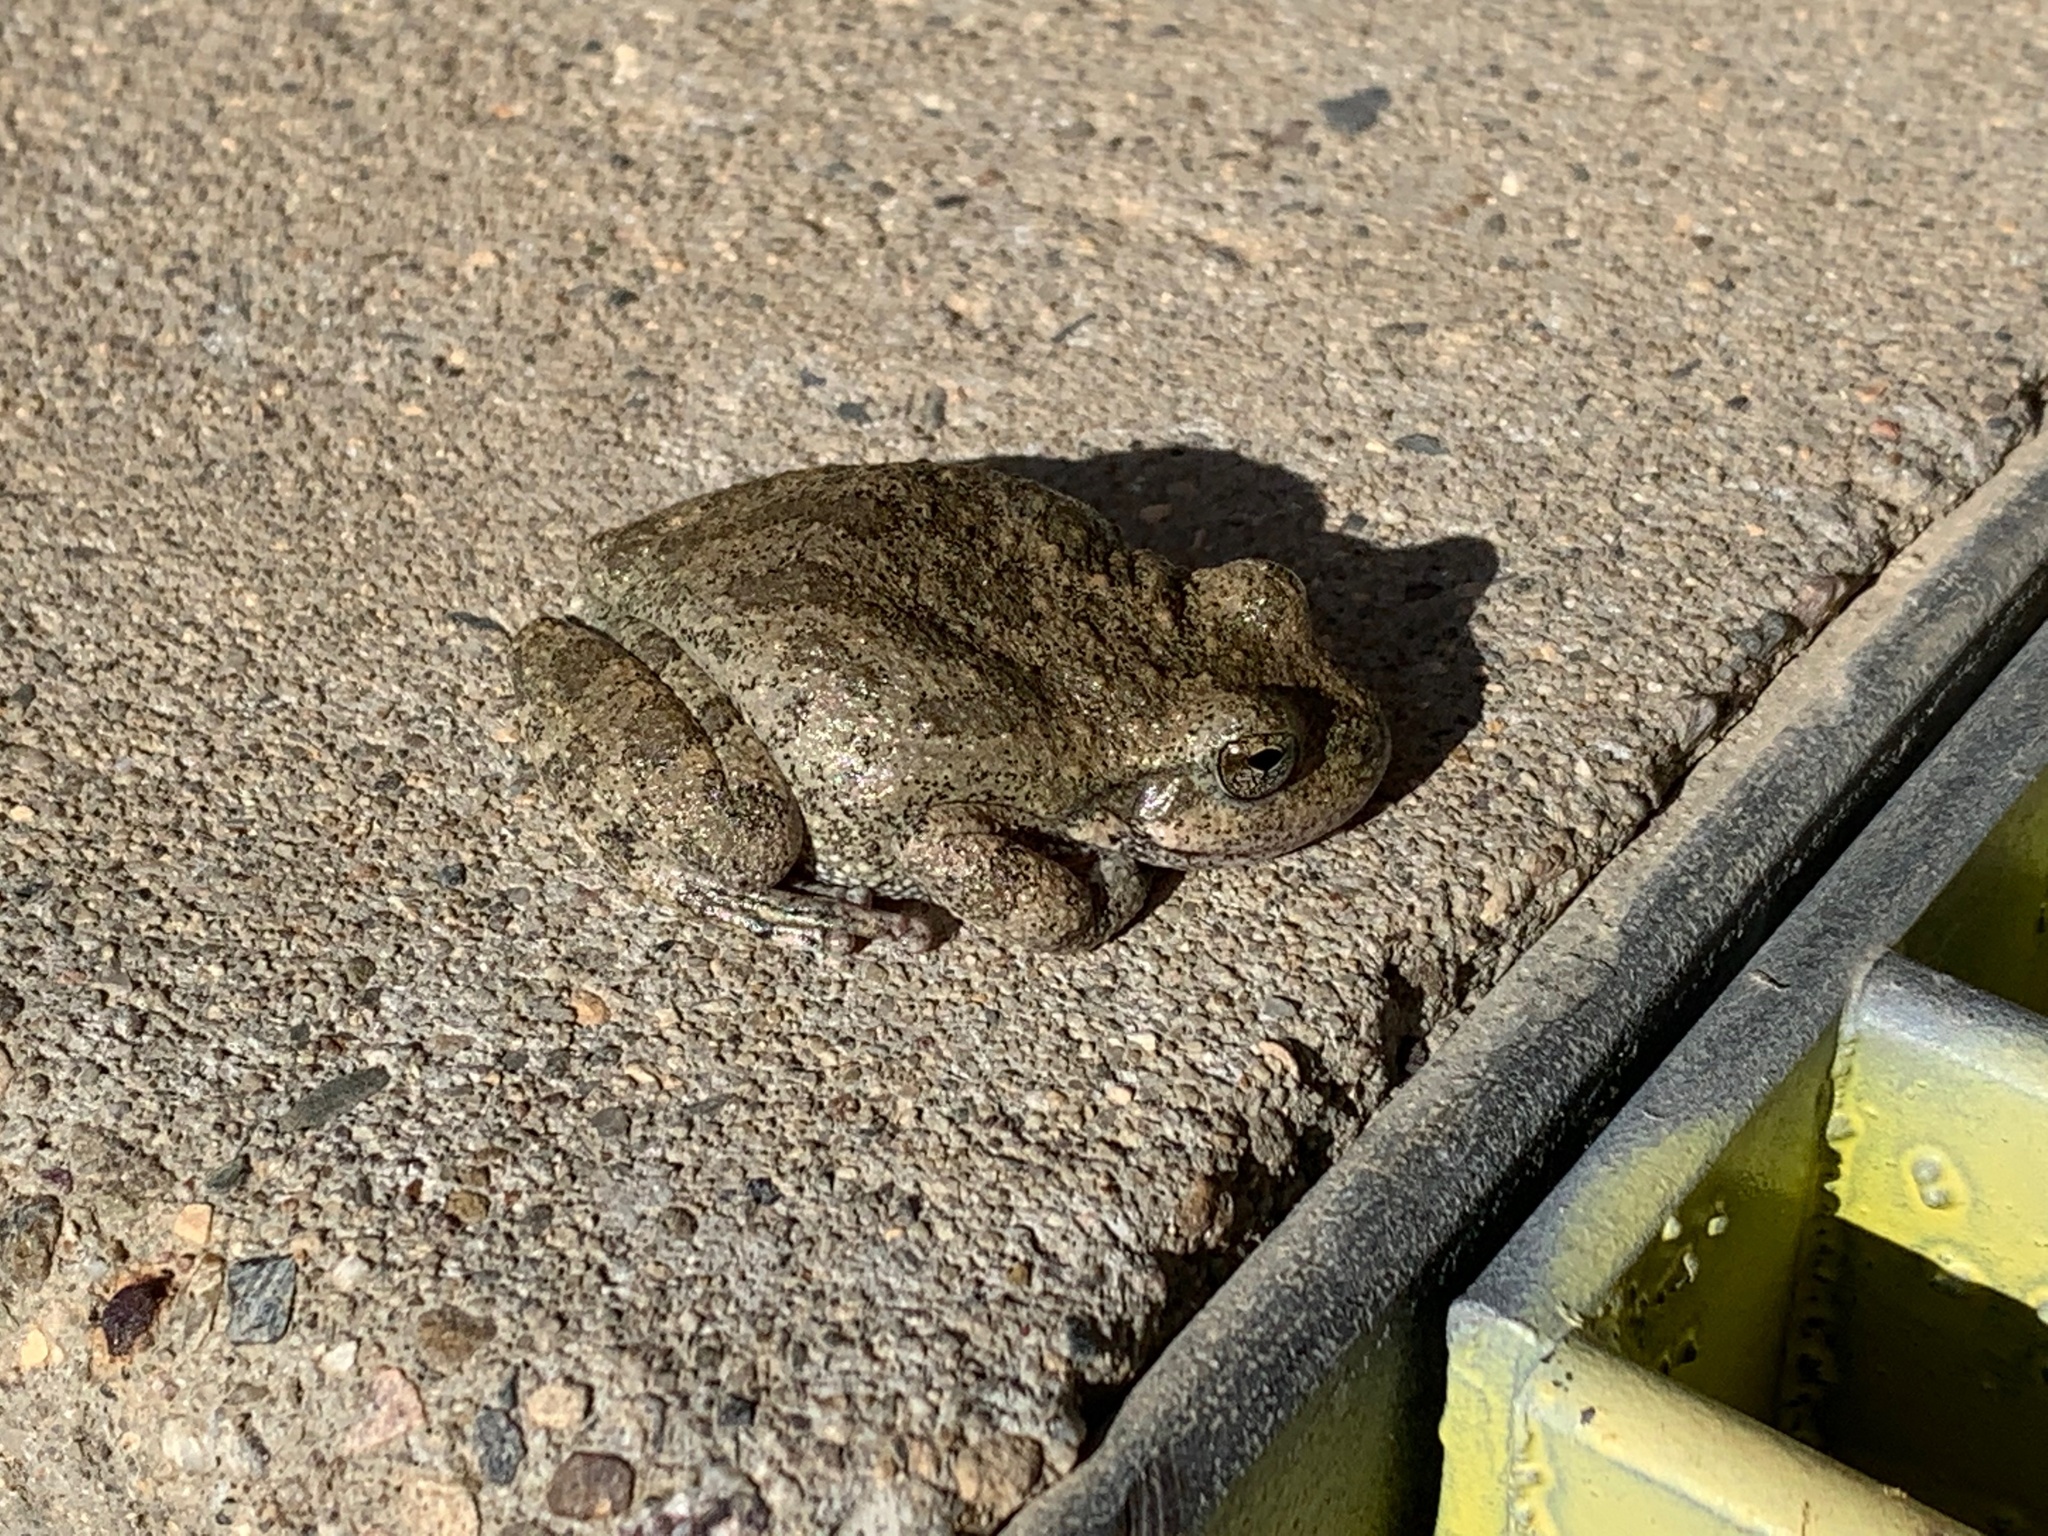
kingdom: Animalia
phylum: Chordata
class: Amphibia
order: Anura
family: Hylidae
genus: Pseudacris
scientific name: Pseudacris cadaverina
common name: California chorus frog
